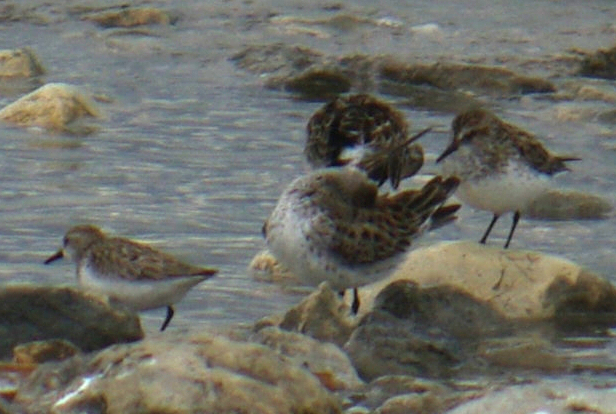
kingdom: Animalia
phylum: Chordata
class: Aves
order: Charadriiformes
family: Scolopacidae
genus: Calidris
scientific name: Calidris fuscicollis
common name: White-rumped sandpiper
